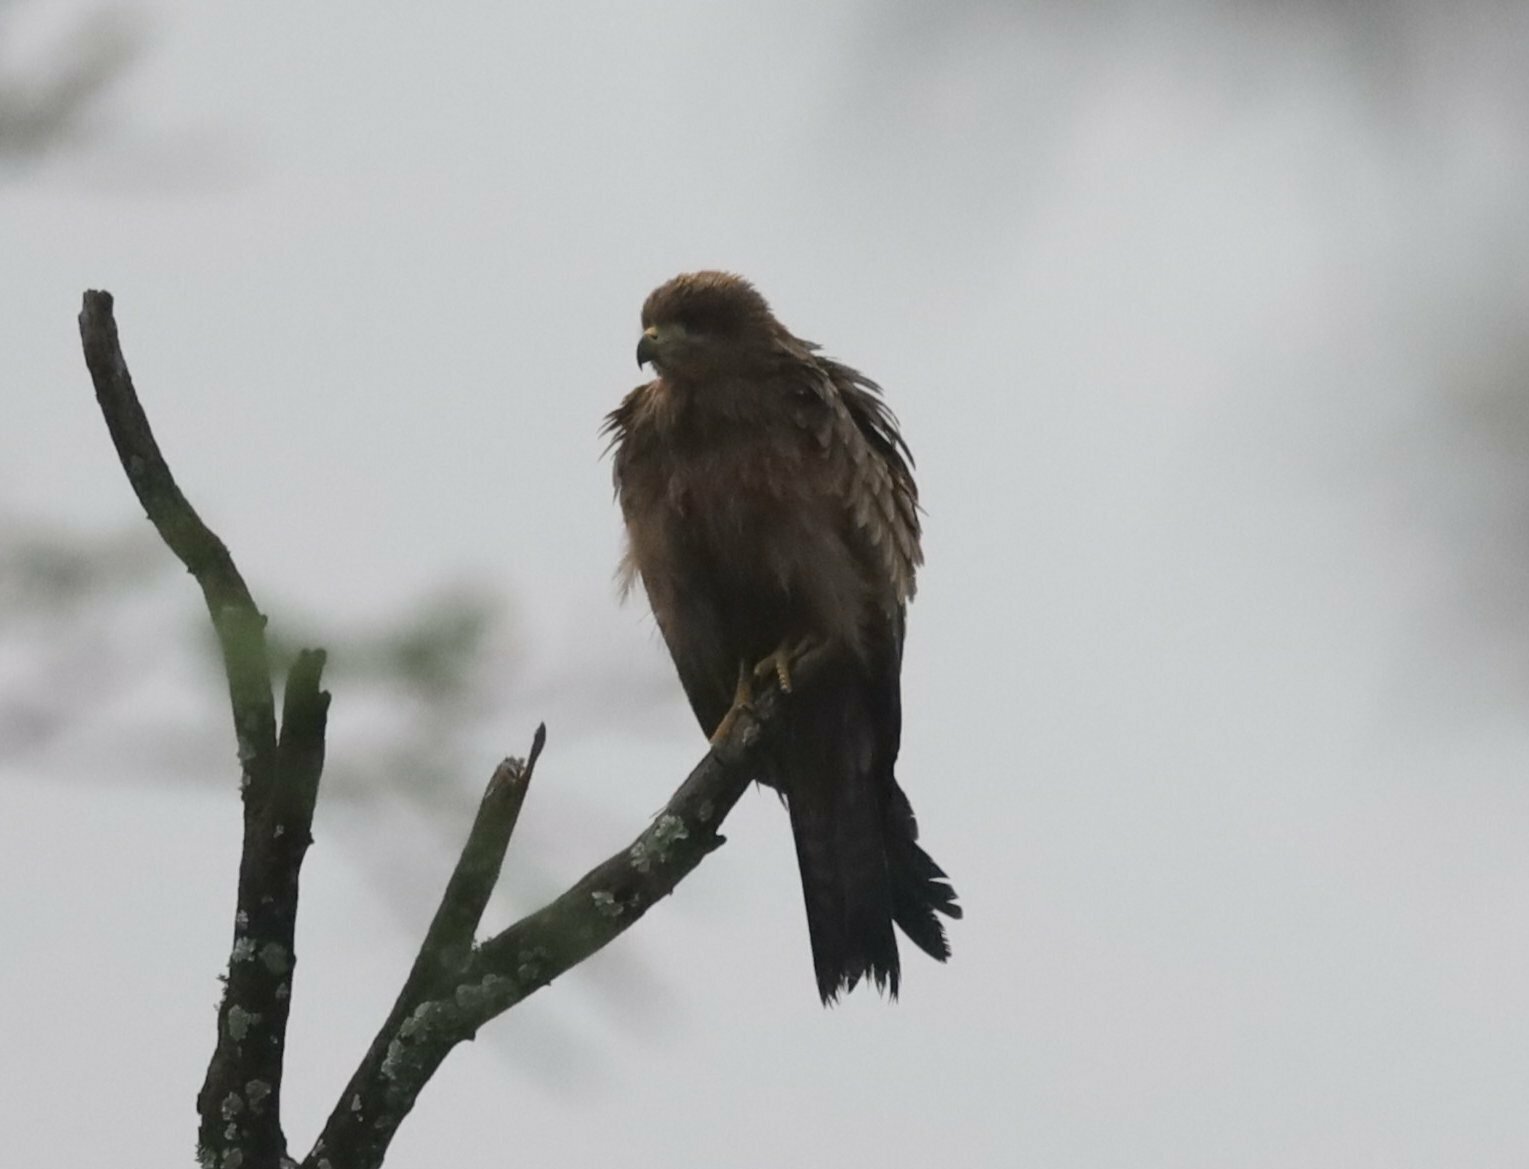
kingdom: Animalia
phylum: Chordata
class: Aves
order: Accipitriformes
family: Accipitridae
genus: Milvus
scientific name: Milvus migrans
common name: Black kite
